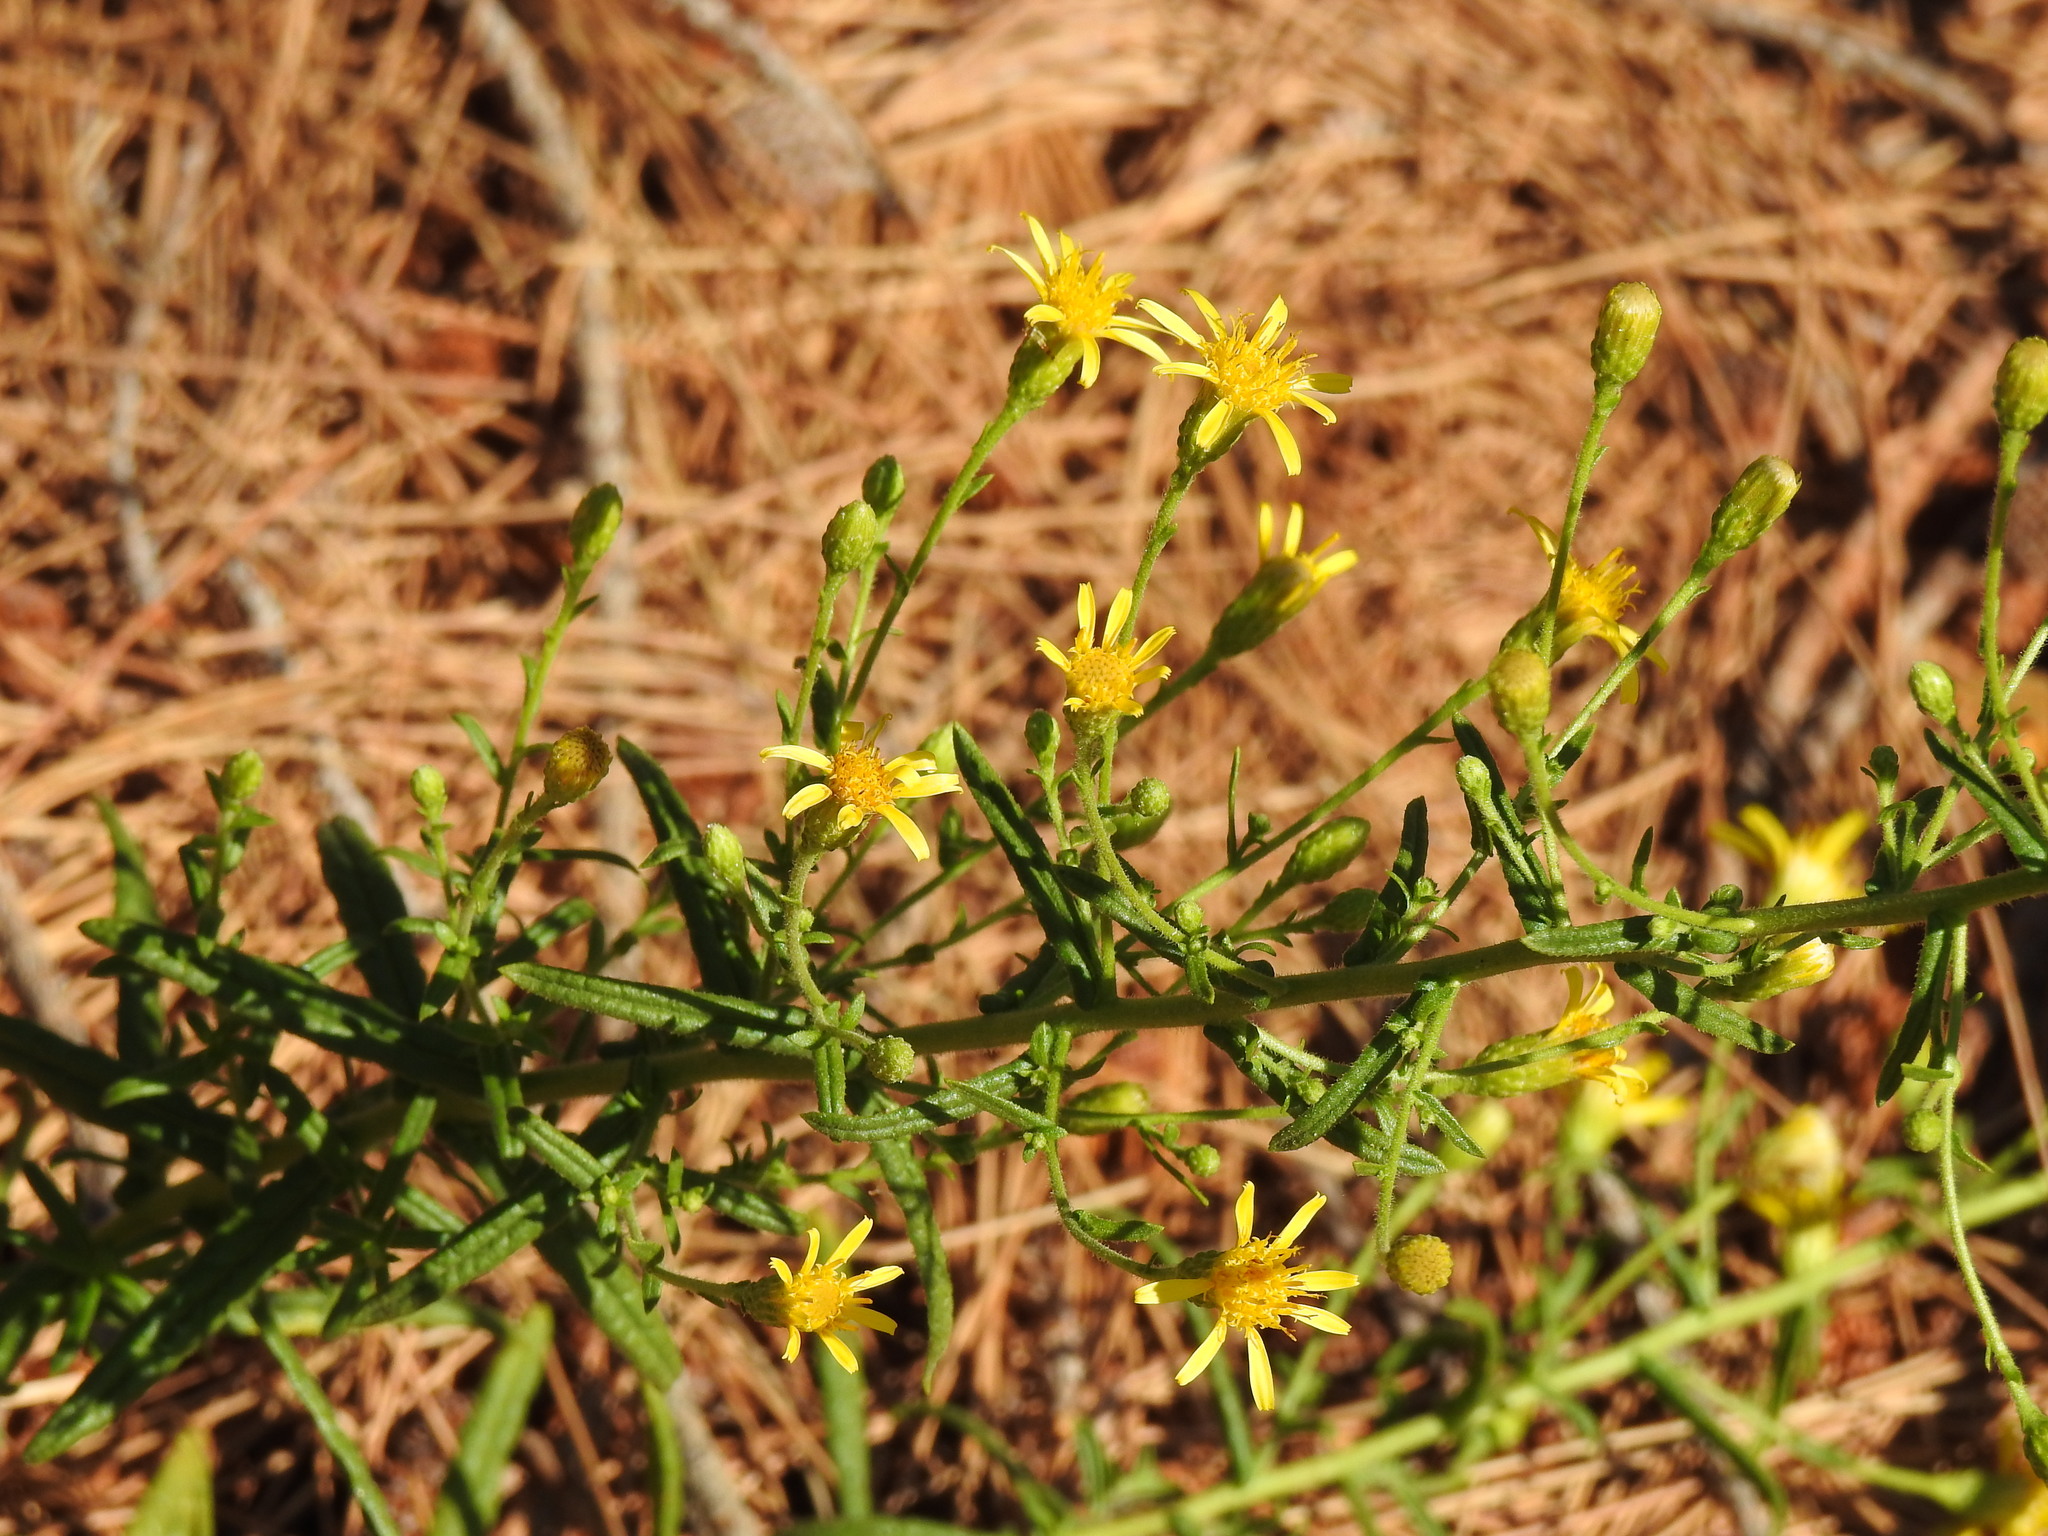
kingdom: Plantae
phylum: Tracheophyta
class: Magnoliopsida
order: Asterales
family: Asteraceae
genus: Dittrichia
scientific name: Dittrichia viscosa
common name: Woody fleabane
